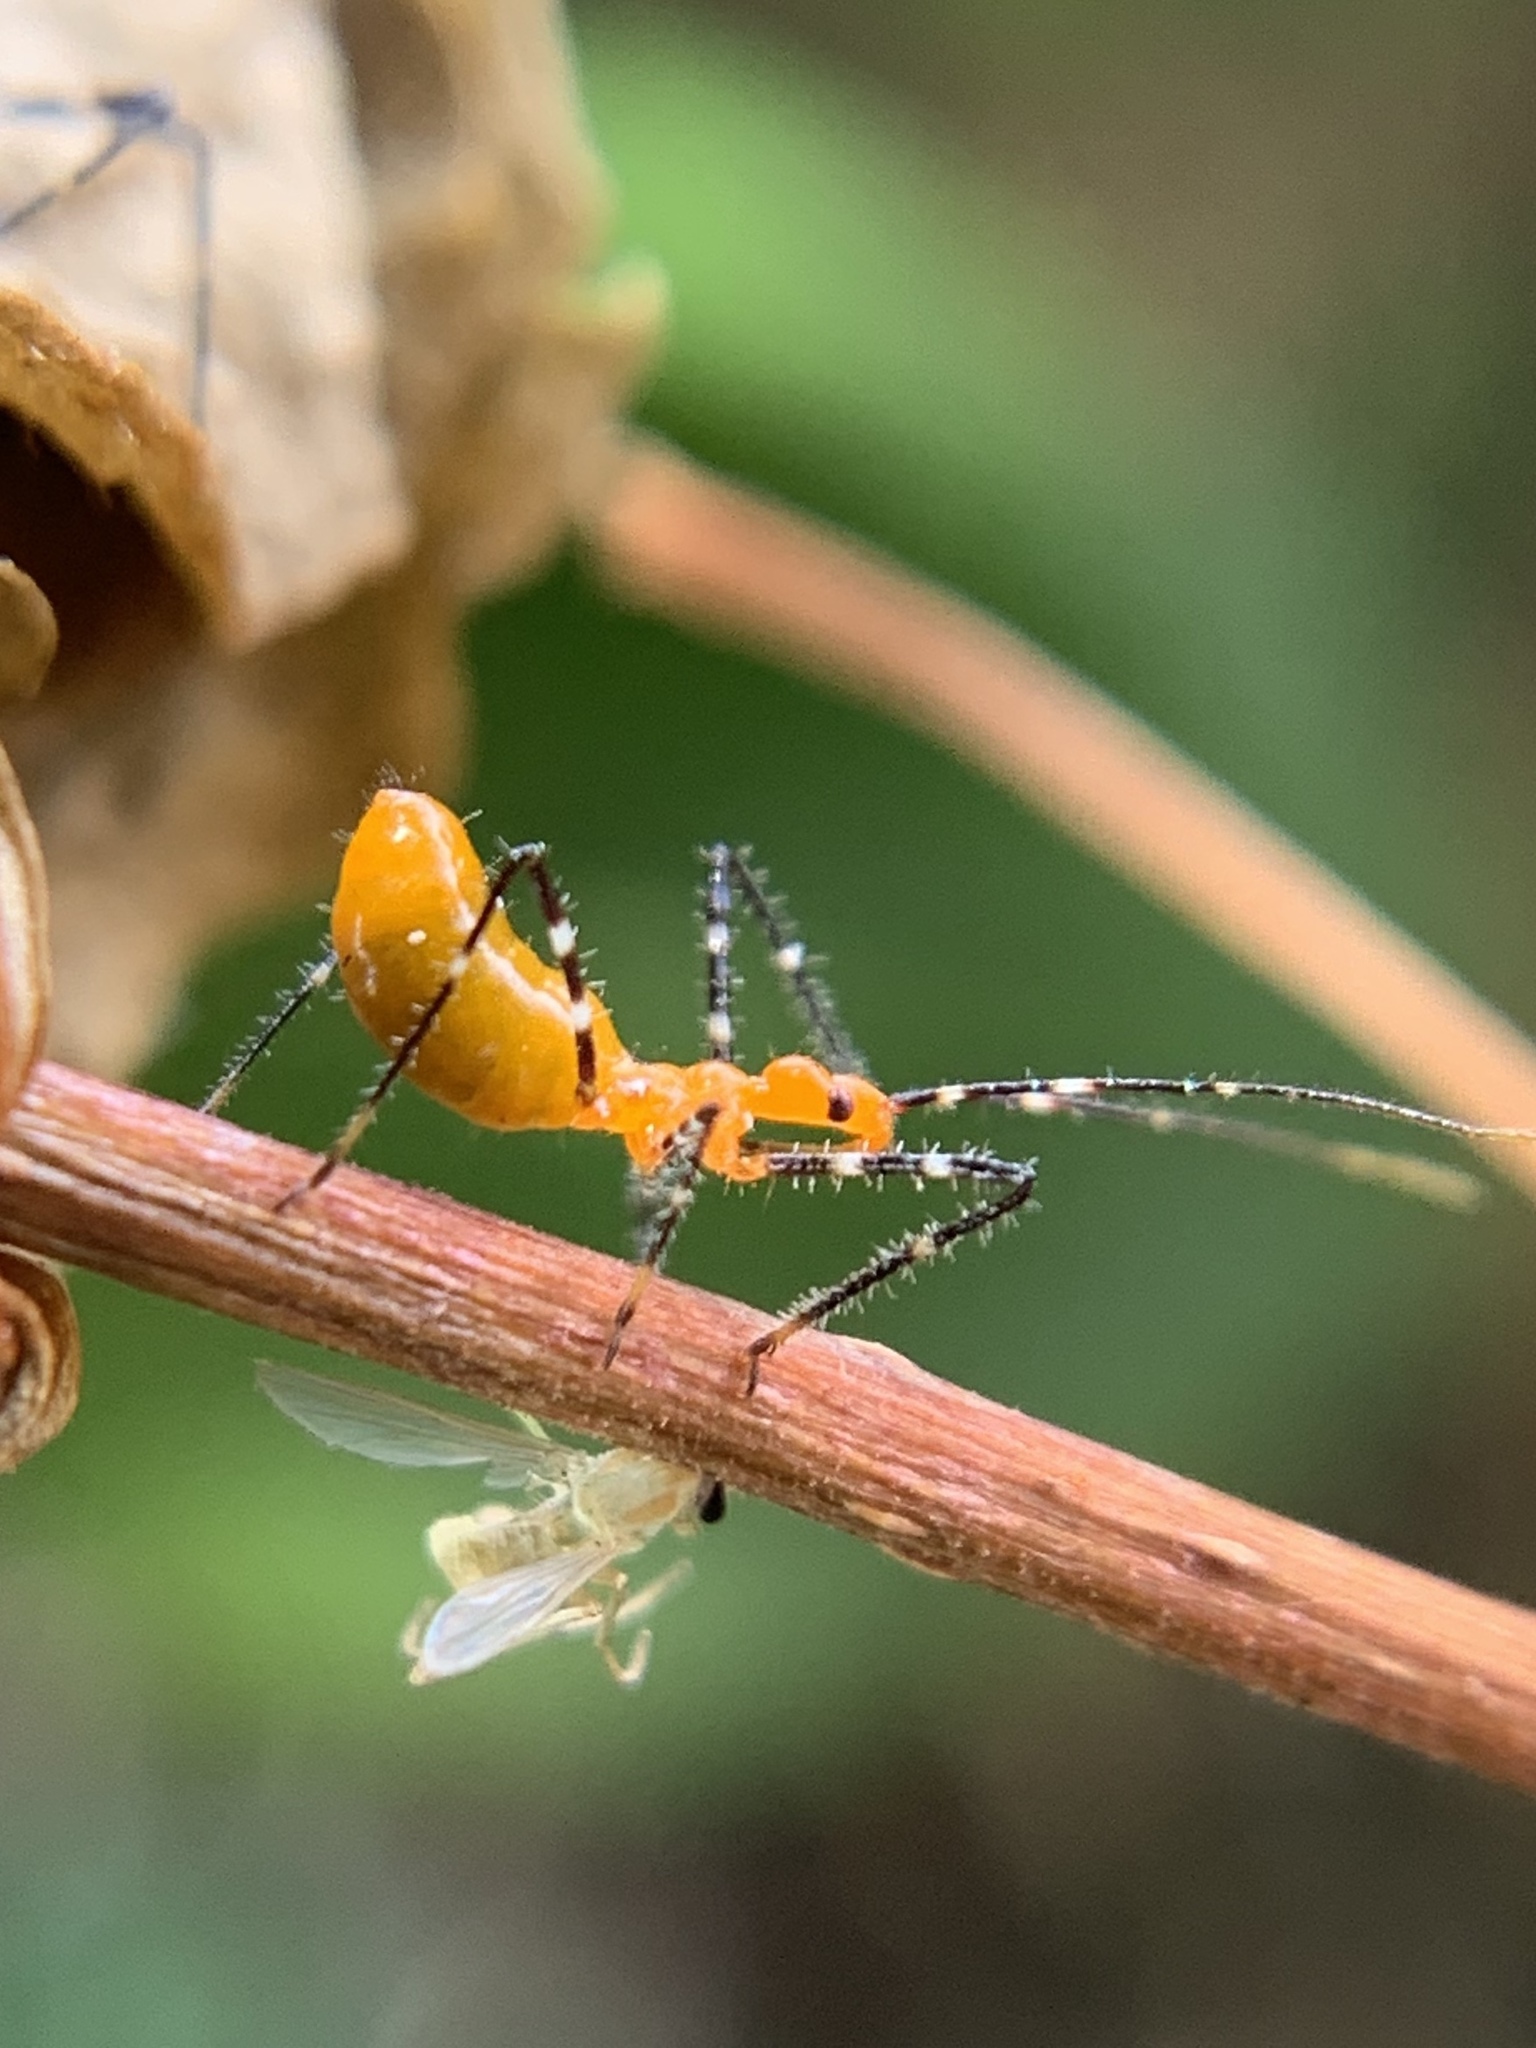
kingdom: Animalia
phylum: Arthropoda
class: Insecta
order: Hemiptera
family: Reduviidae
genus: Zelus
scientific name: Zelus longipes
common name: Milkweed assassin bug
